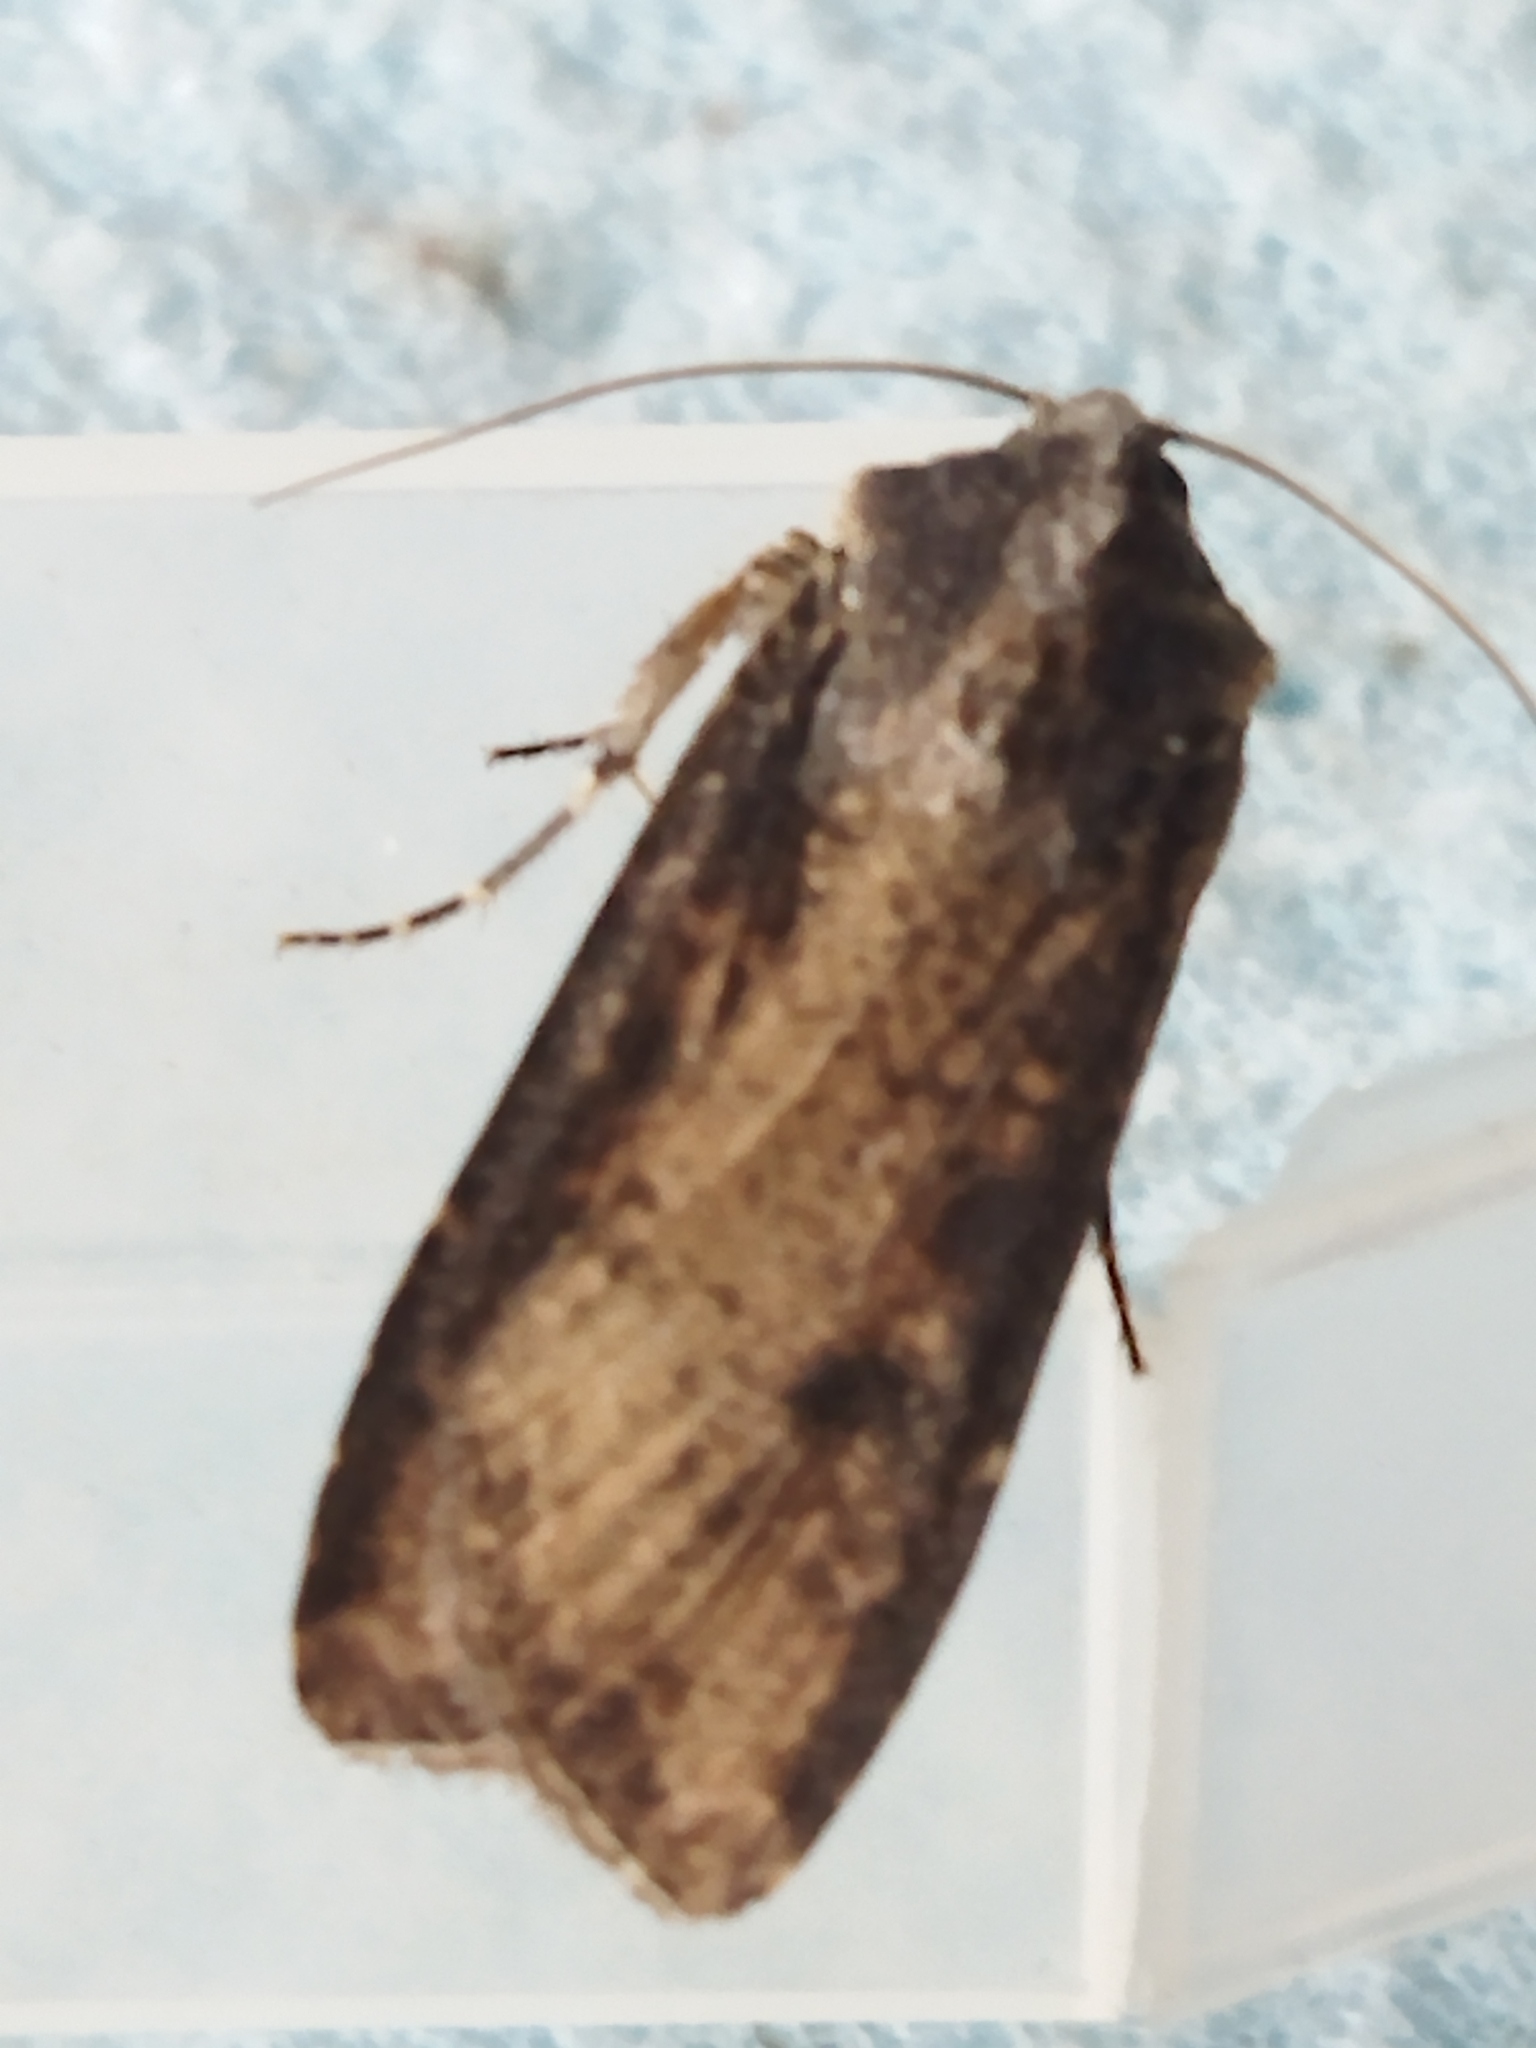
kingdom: Animalia
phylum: Arthropoda
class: Insecta
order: Lepidoptera
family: Noctuidae
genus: Peridroma
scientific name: Peridroma saucia
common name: Pearly underwing
